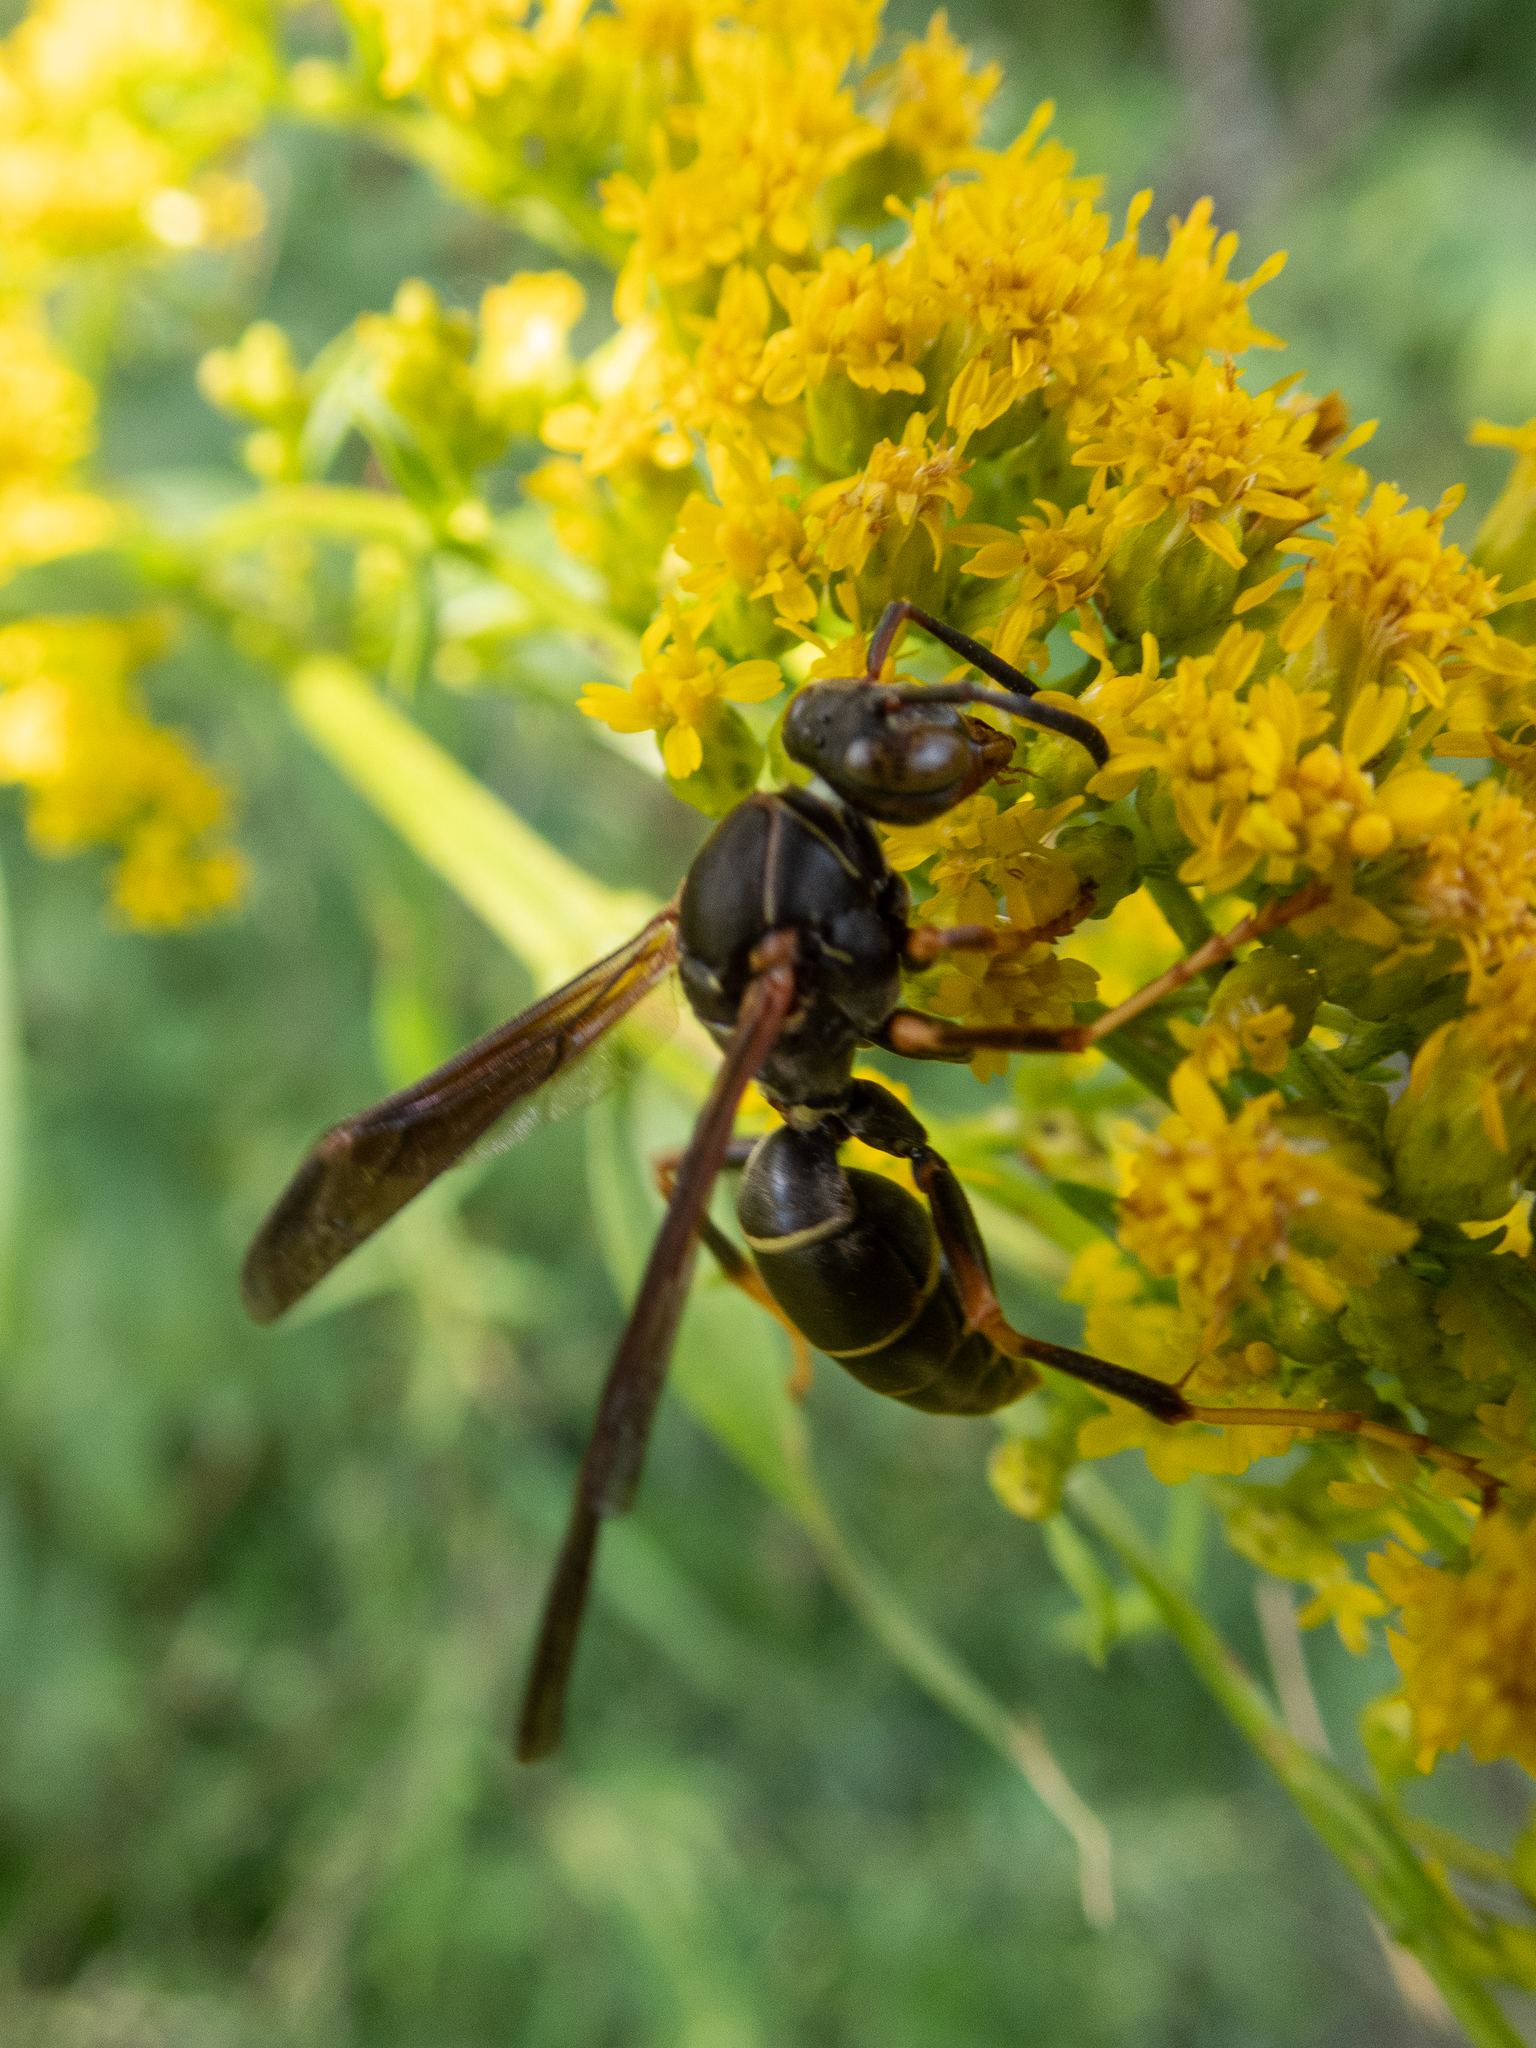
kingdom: Animalia
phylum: Arthropoda
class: Insecta
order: Hymenoptera
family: Eumenidae
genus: Polistes
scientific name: Polistes fuscatus
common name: Dark paper wasp
